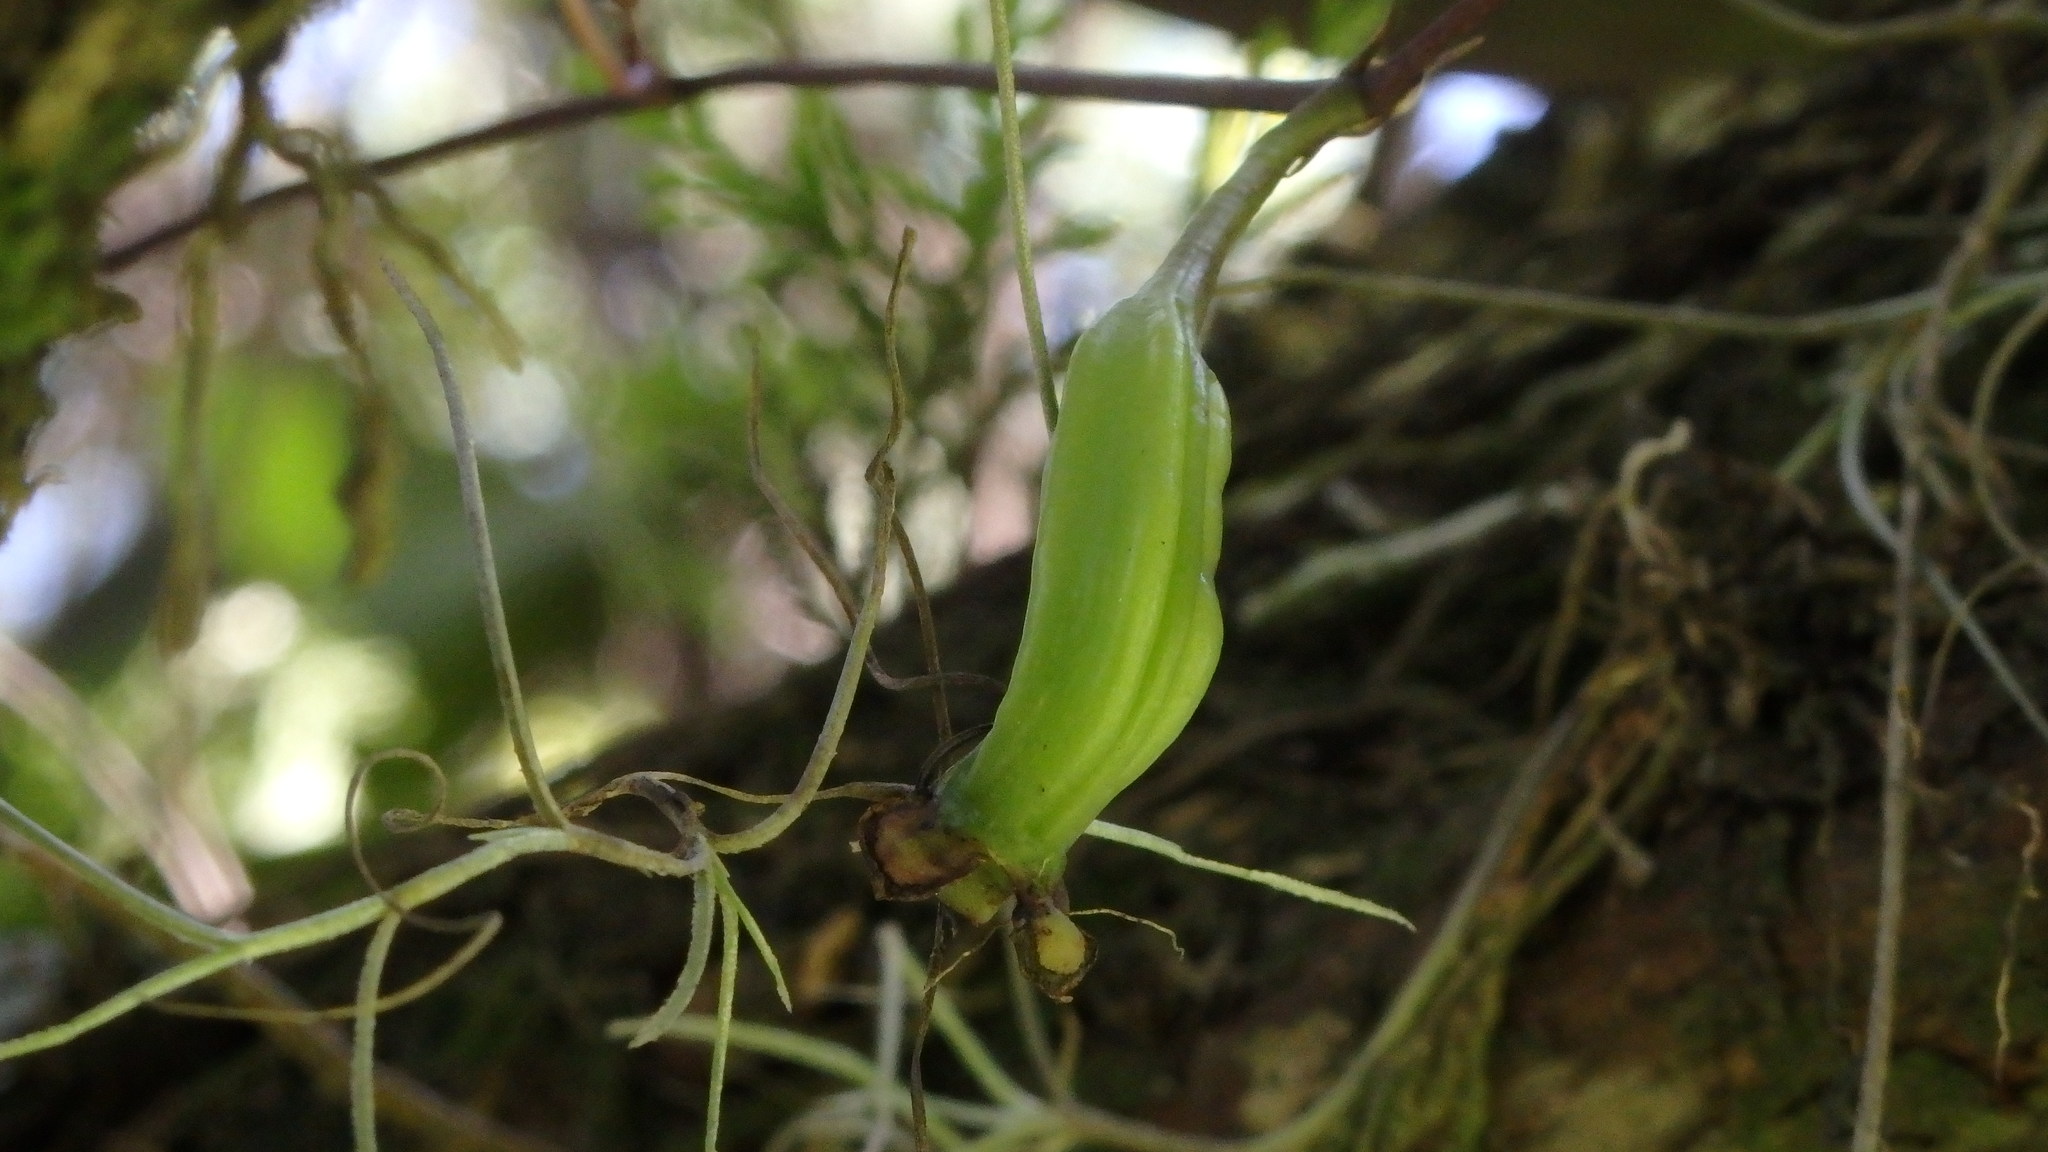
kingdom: Plantae
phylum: Tracheophyta
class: Liliopsida
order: Asparagales
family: Orchidaceae
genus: Trichocentrum
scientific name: Trichocentrum lindenii
